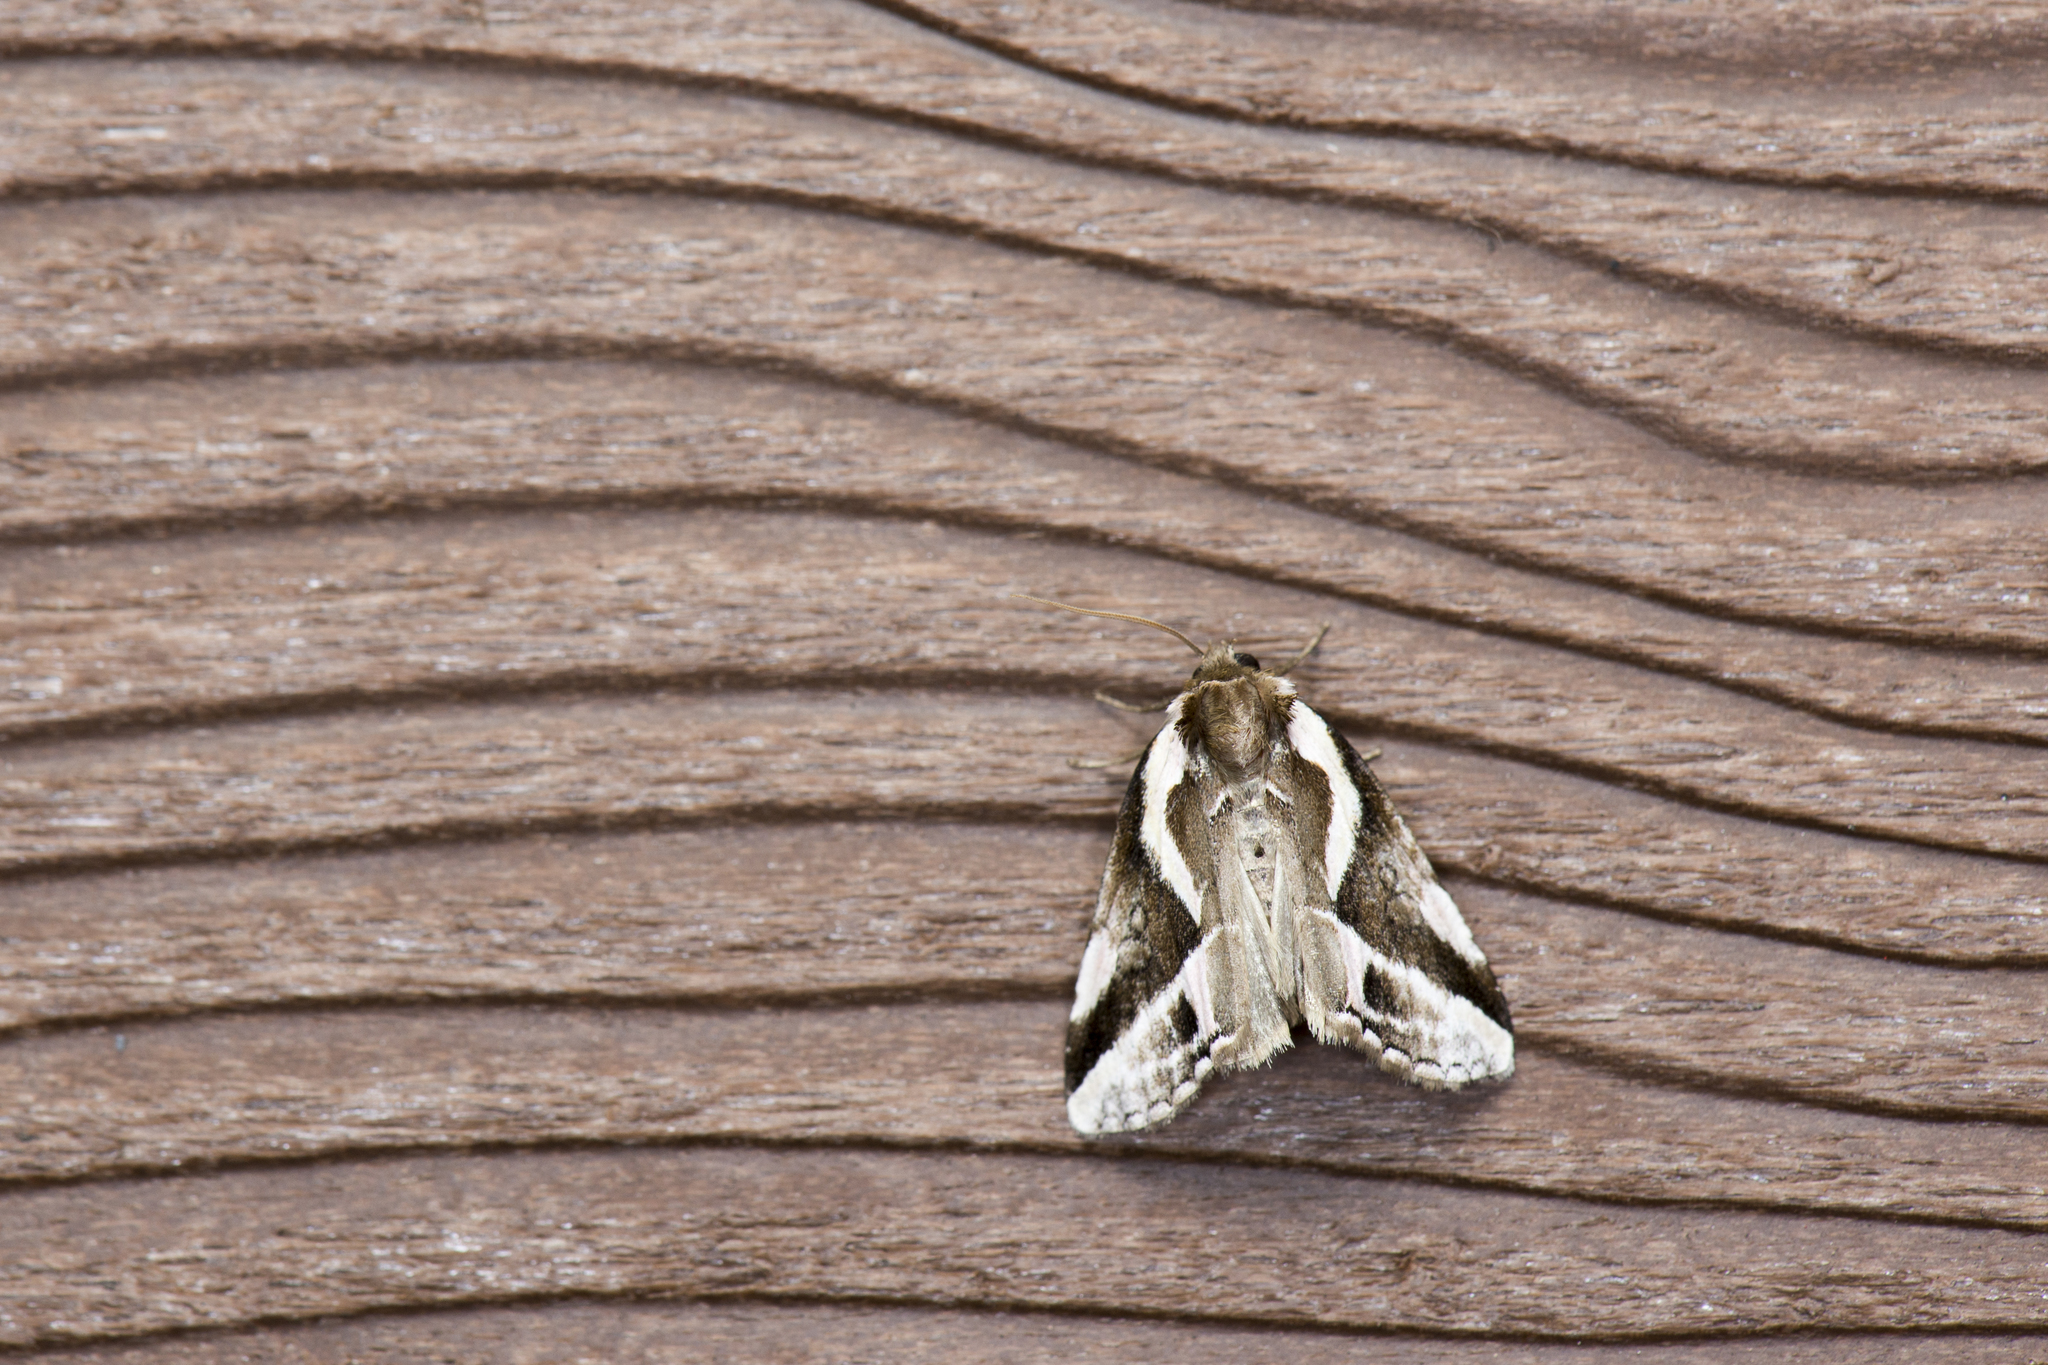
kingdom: Animalia
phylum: Arthropoda
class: Insecta
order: Lepidoptera
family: Drepanidae
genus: Psidopala
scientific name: Psidopala undulans
